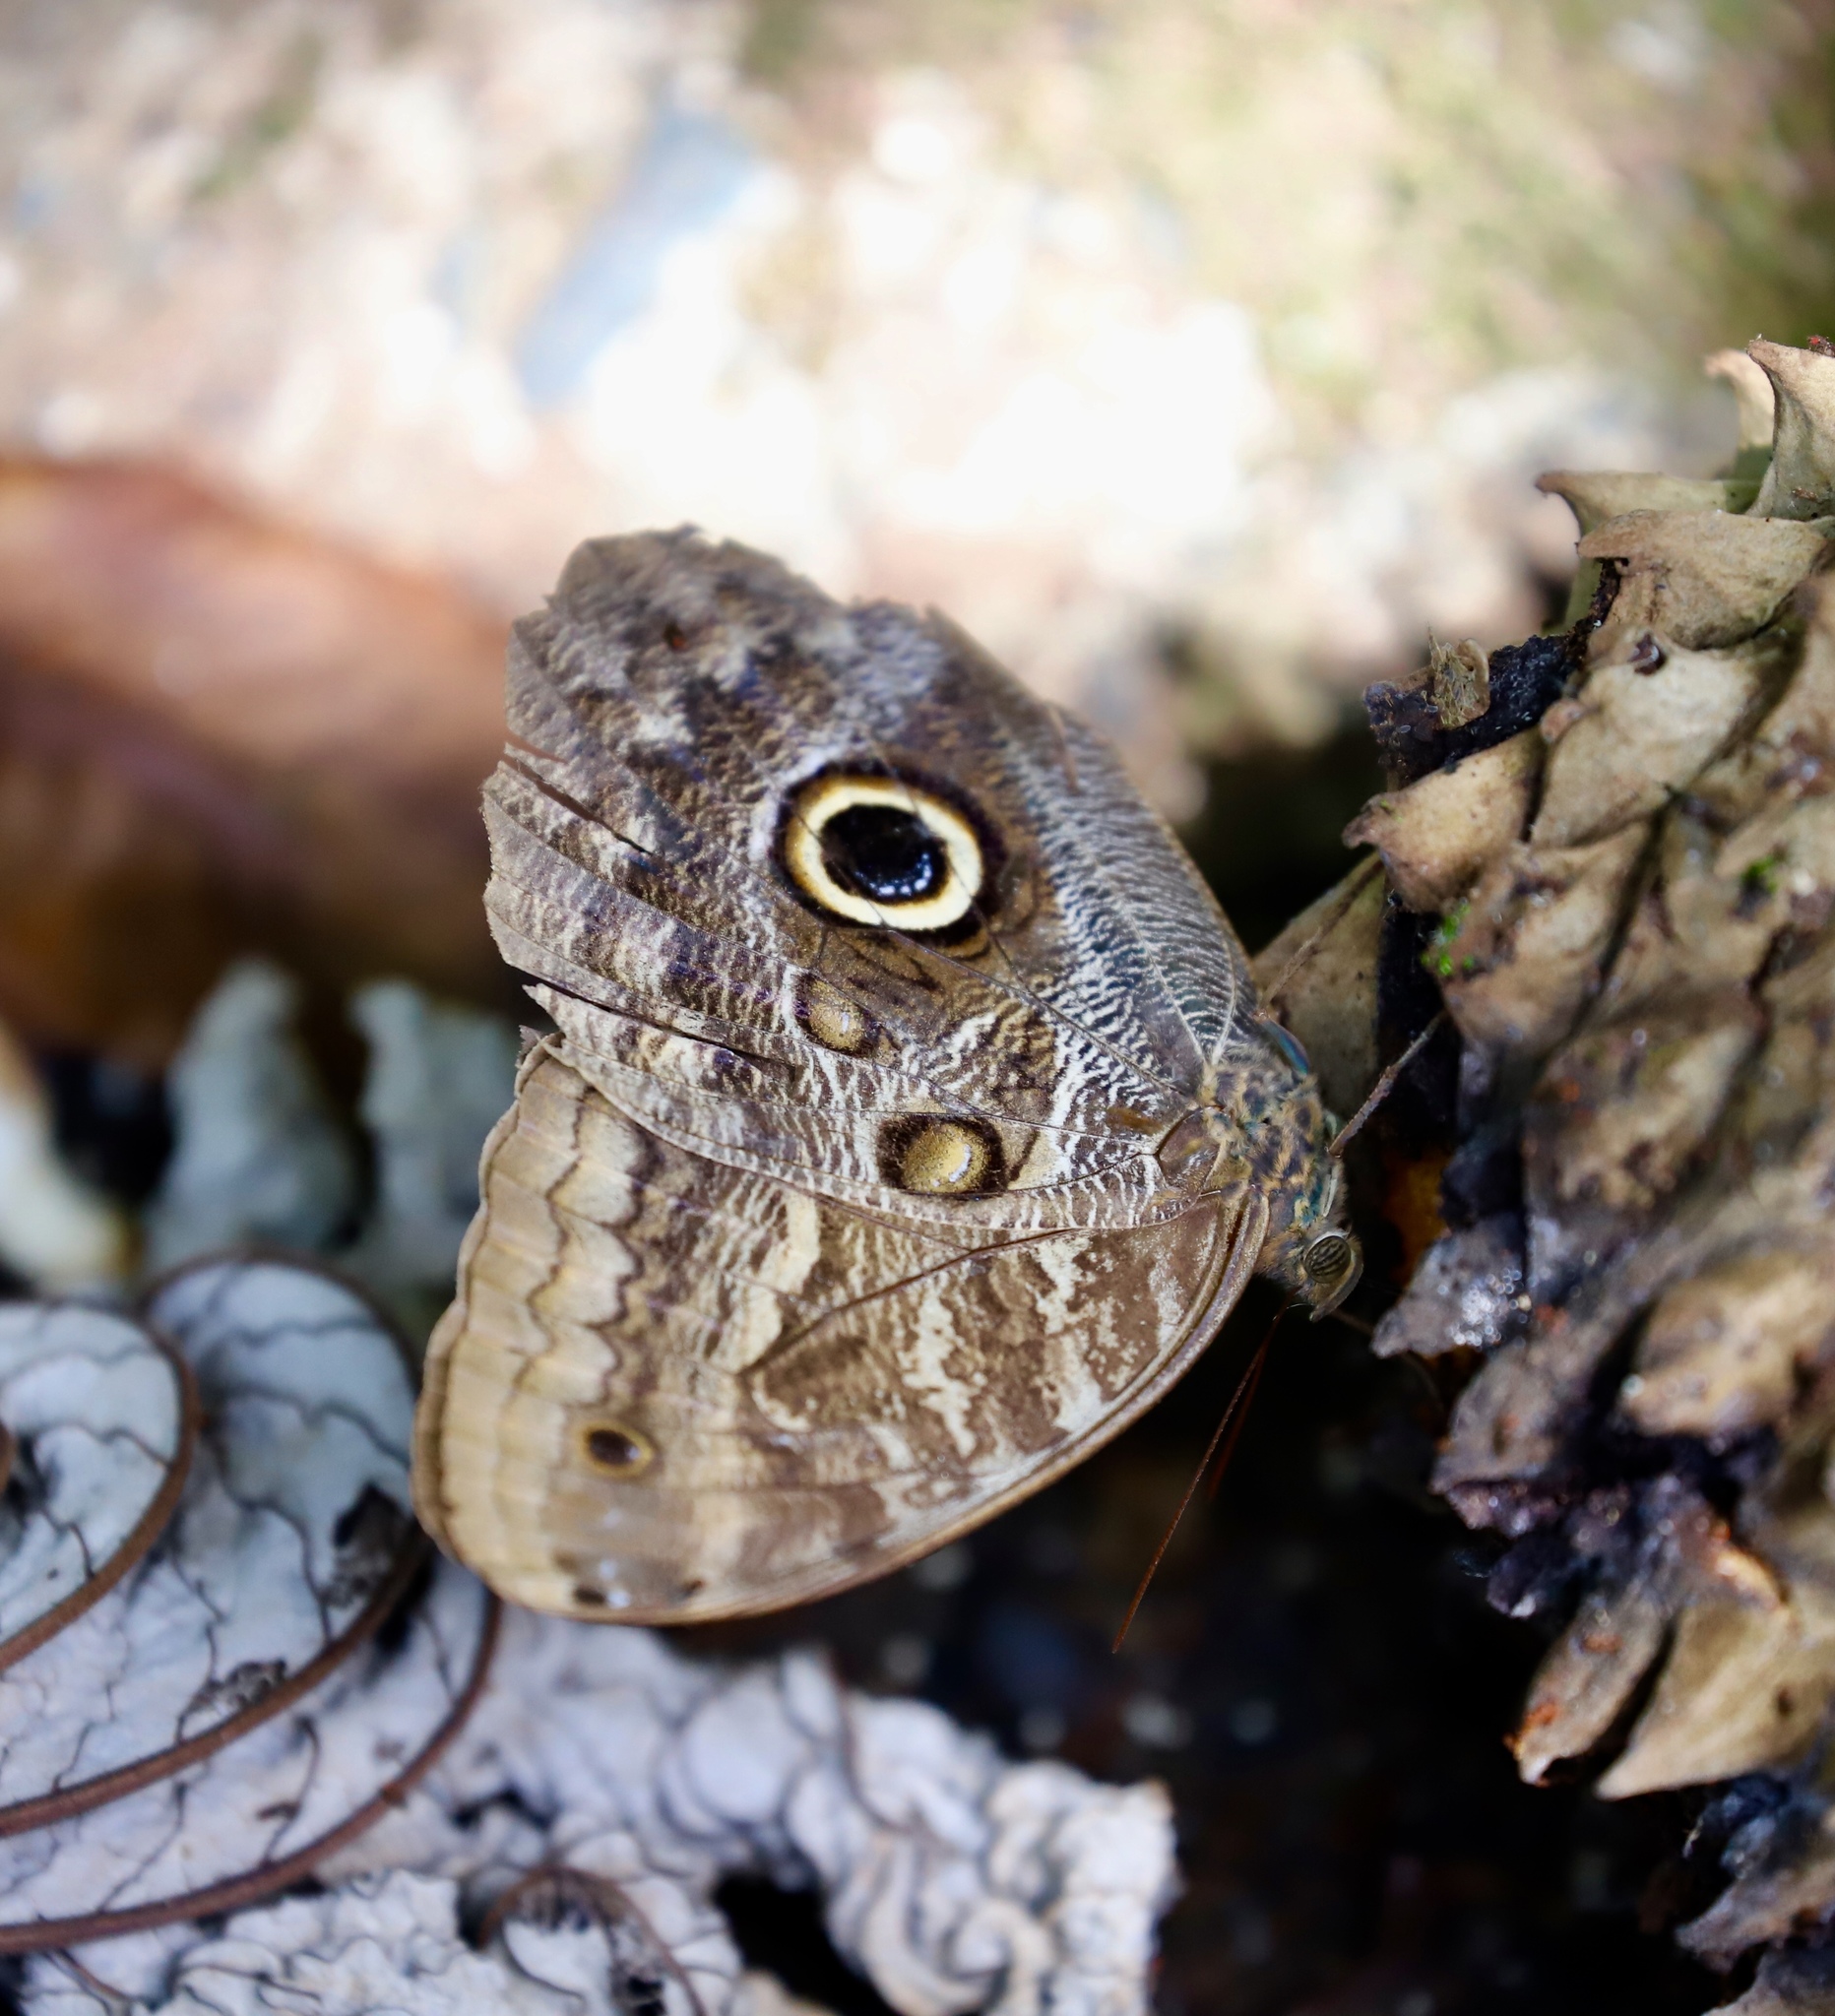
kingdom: Animalia
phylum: Arthropoda
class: Insecta
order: Lepidoptera
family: Nymphalidae
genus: Caligo
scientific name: Caligo telamonius
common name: Pale owl-butterfly
